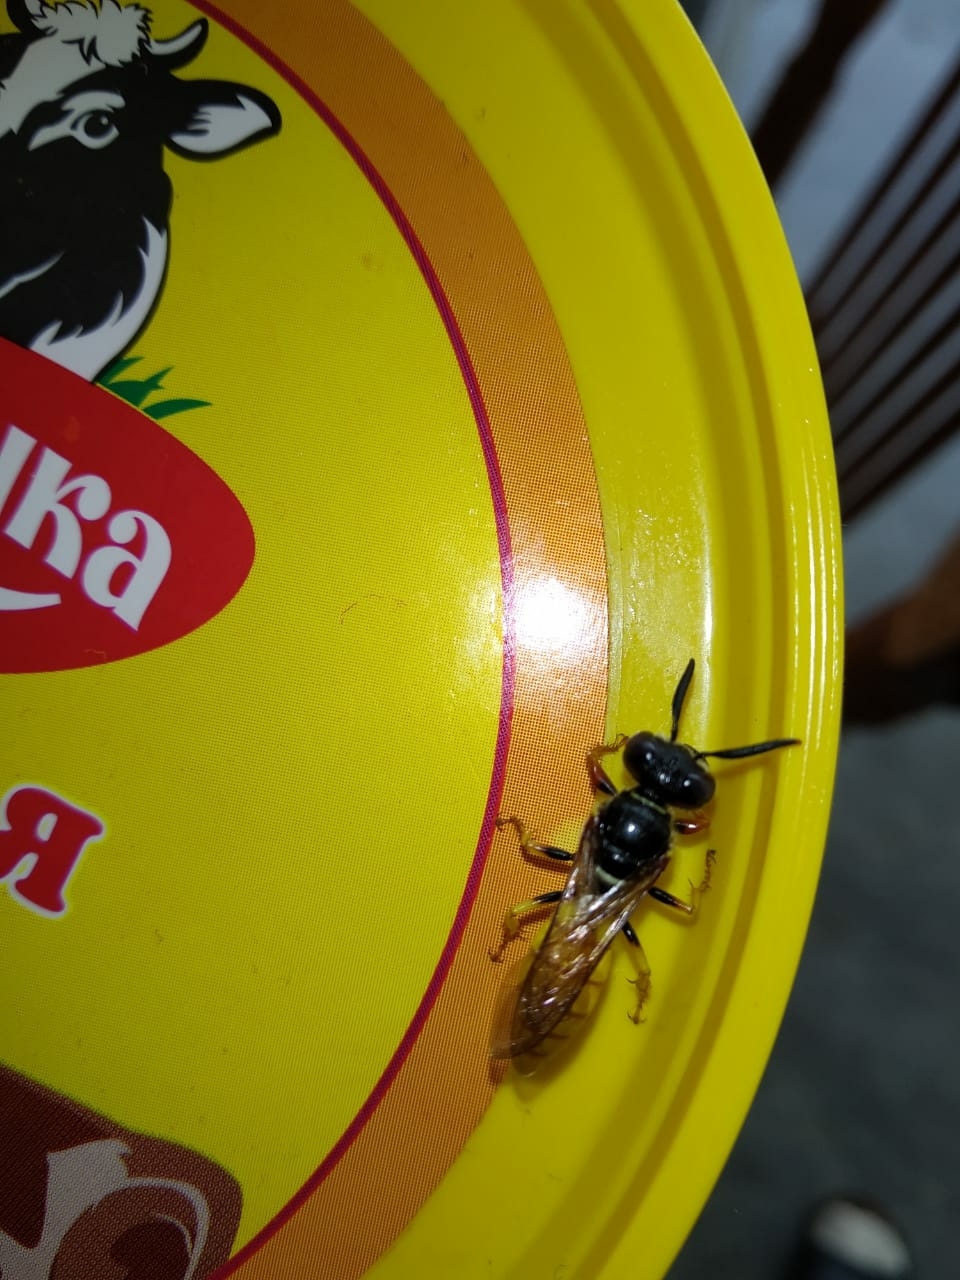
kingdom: Animalia
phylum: Arthropoda
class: Insecta
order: Hymenoptera
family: Crabronidae
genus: Philanthus
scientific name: Philanthus triangulum
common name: Bee wolf
